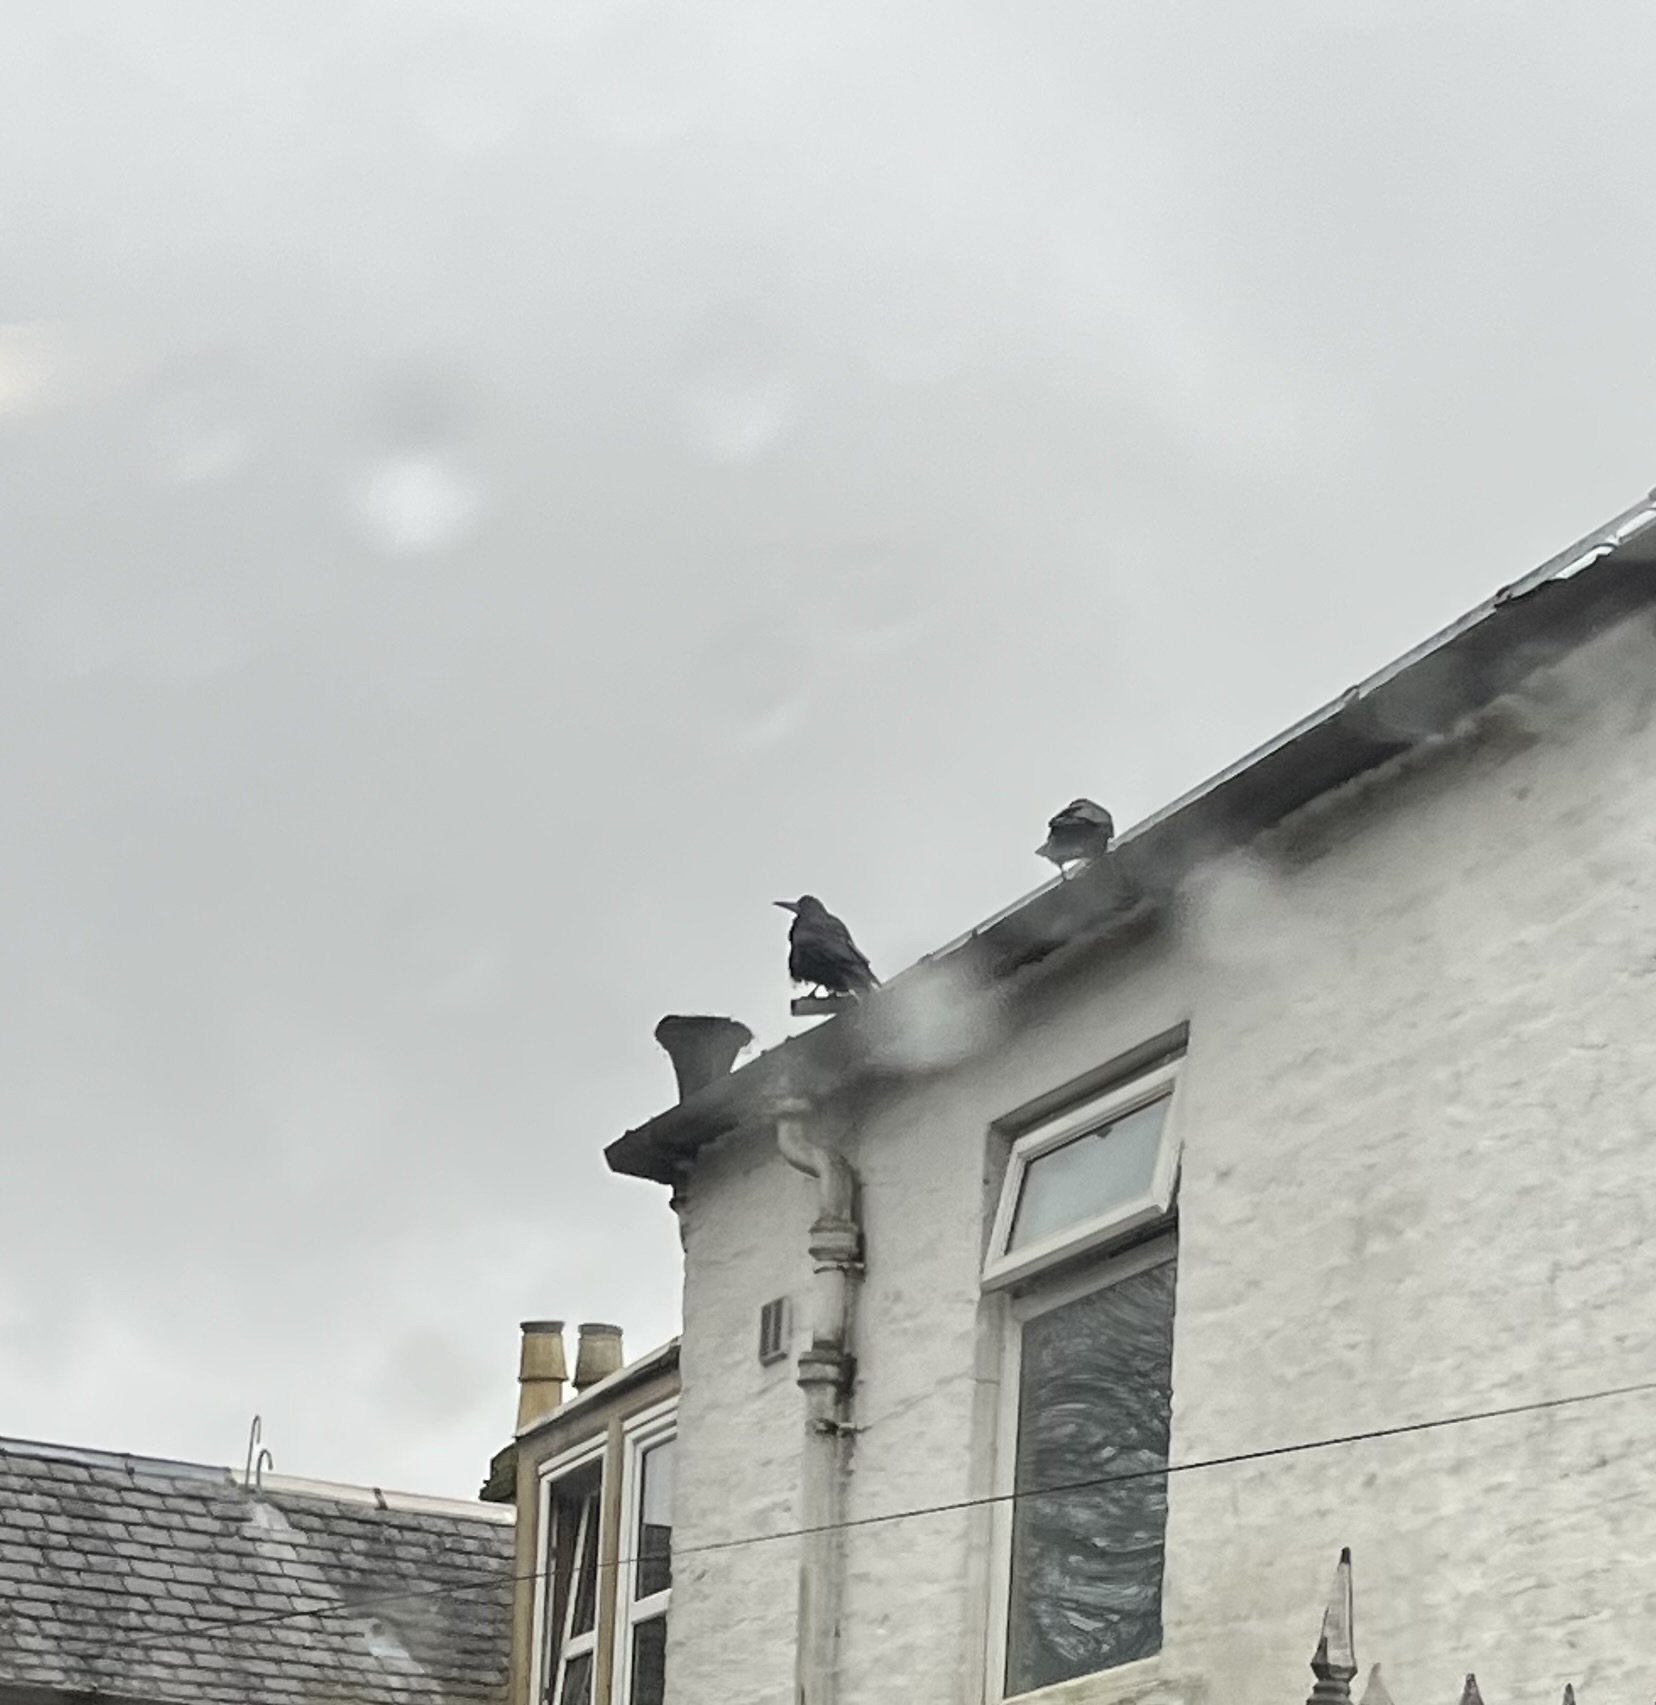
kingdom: Animalia
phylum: Chordata
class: Aves
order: Passeriformes
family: Corvidae
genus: Corvus
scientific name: Corvus frugilegus
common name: Rook
